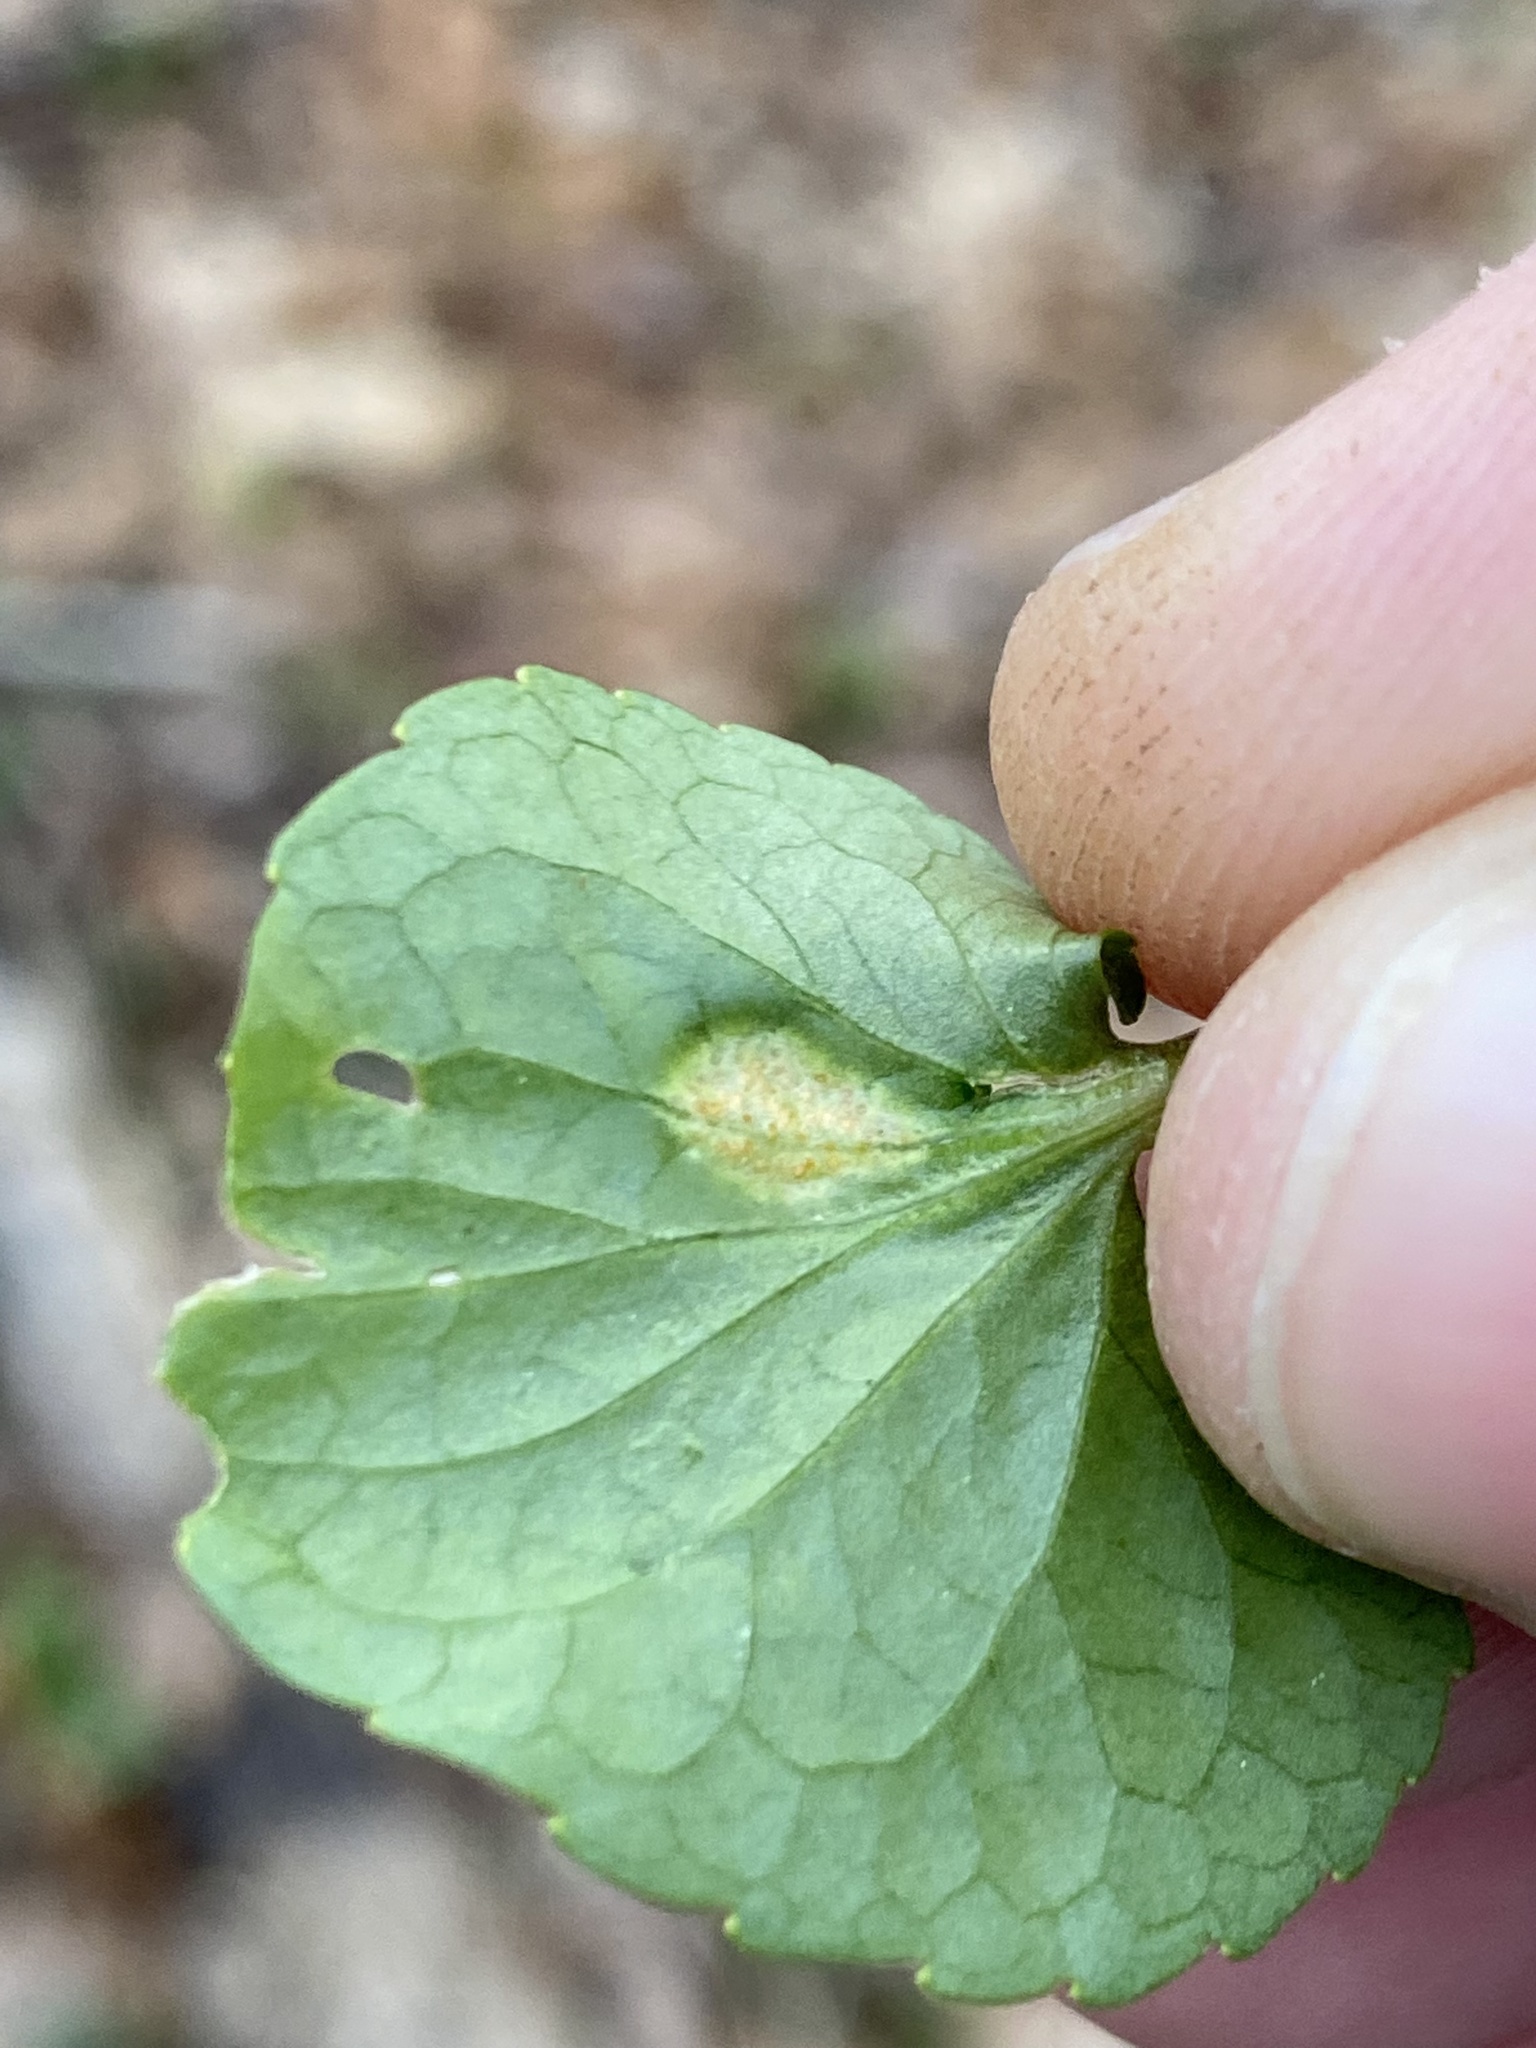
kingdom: Fungi
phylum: Basidiomycota
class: Pucciniomycetes
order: Pucciniales
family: Pucciniaceae
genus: Puccinia
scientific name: Puccinia violae
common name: Violet rust
